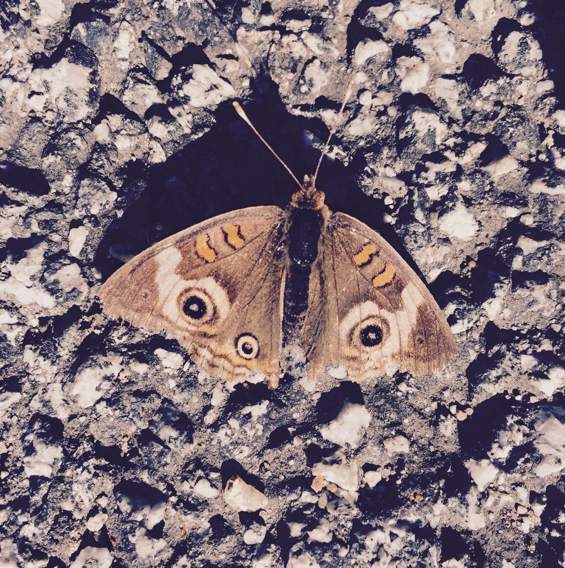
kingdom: Animalia
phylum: Arthropoda
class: Insecta
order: Lepidoptera
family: Nymphalidae
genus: Junonia
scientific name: Junonia grisea
